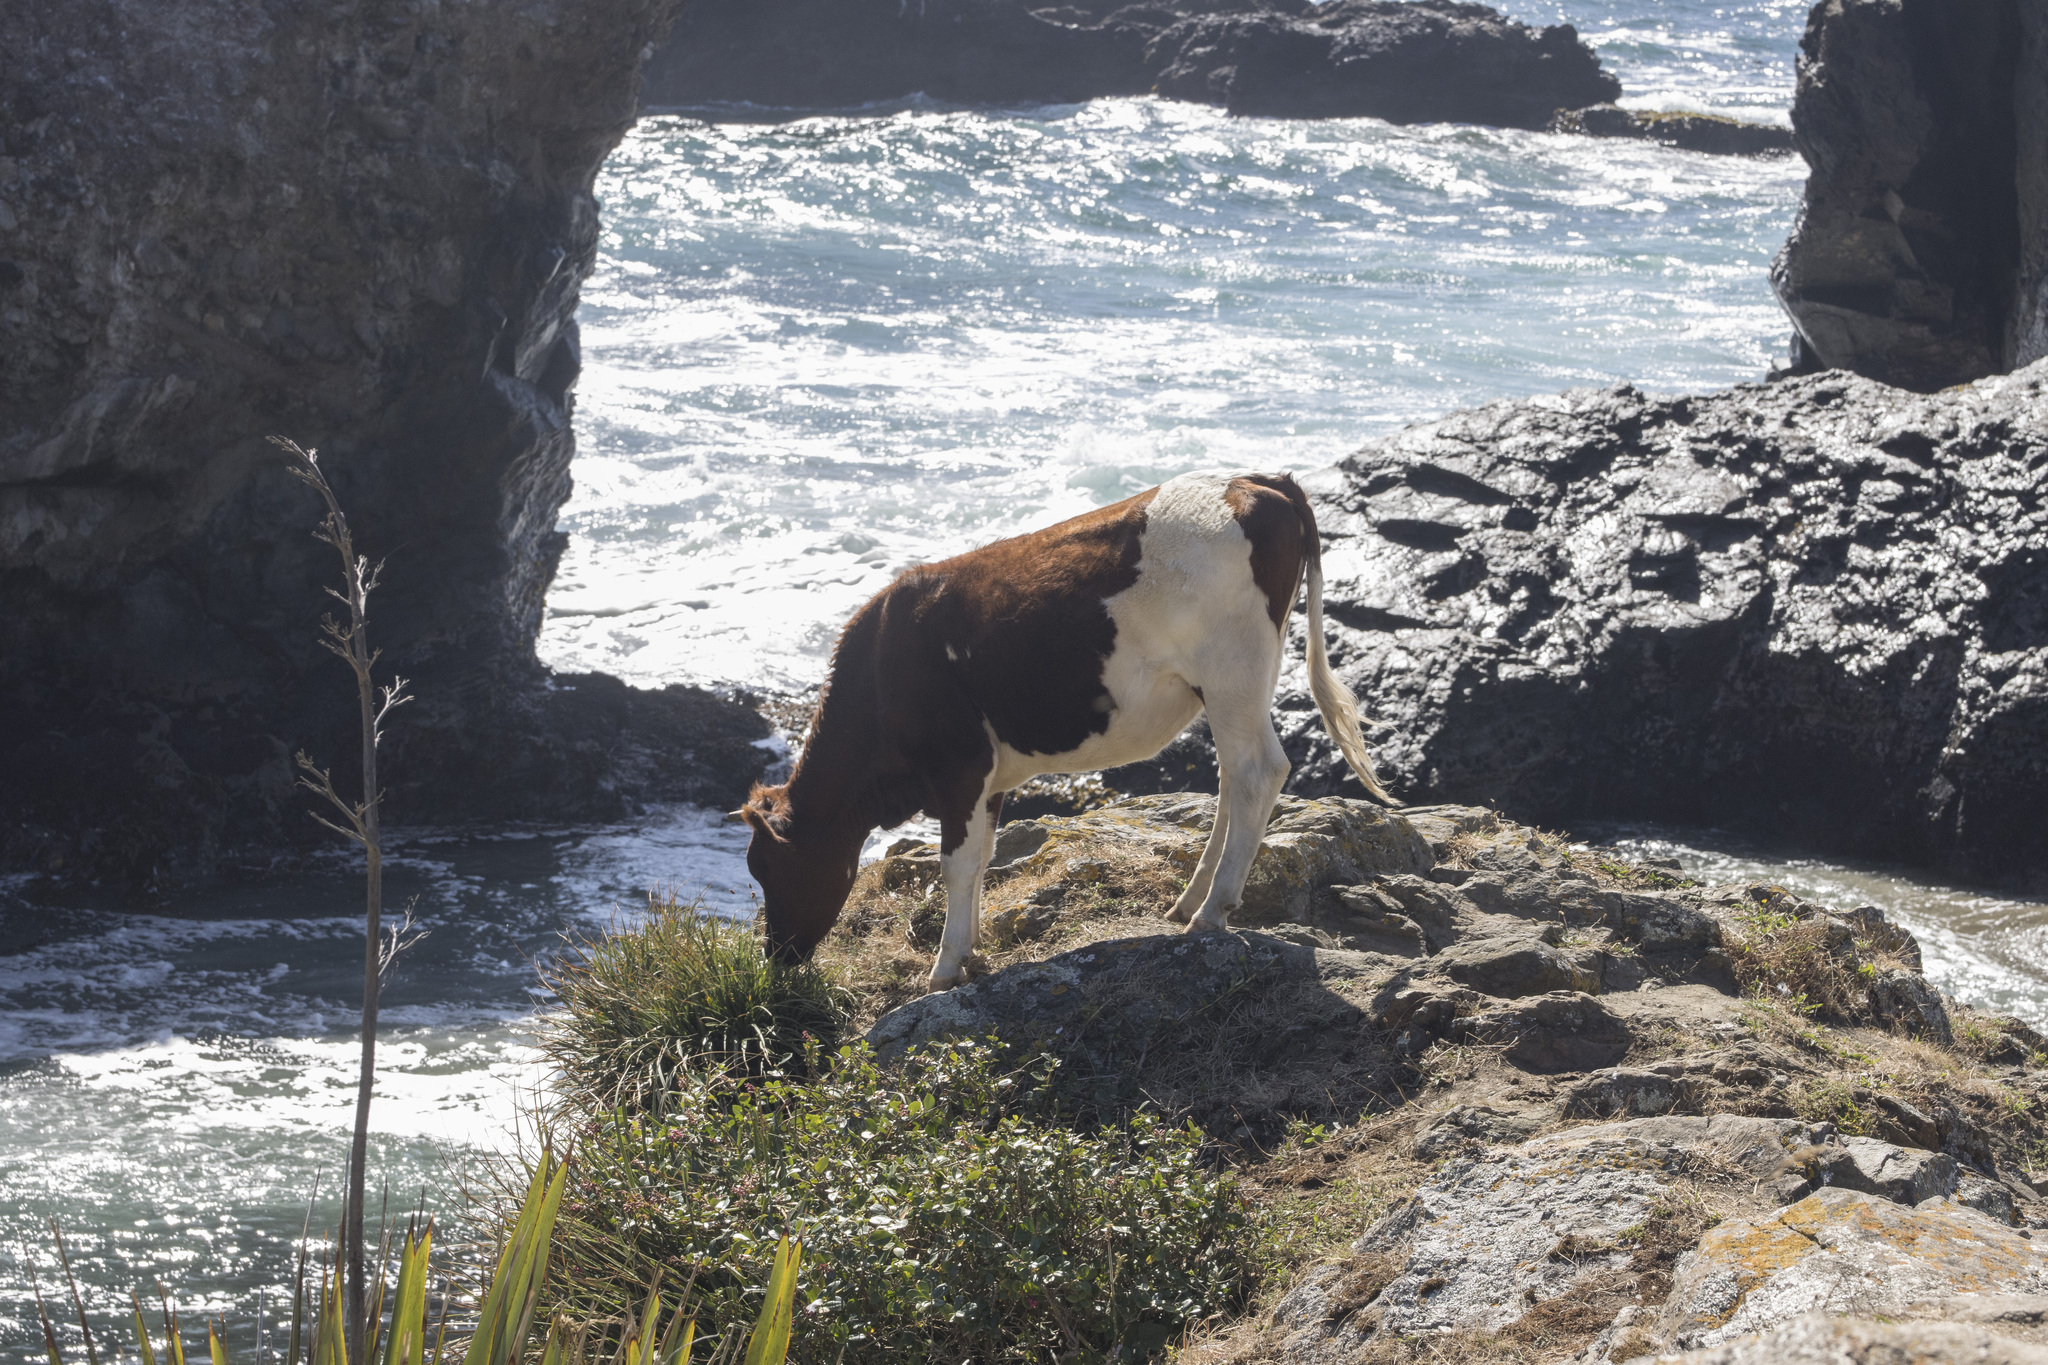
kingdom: Animalia
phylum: Chordata
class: Mammalia
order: Artiodactyla
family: Bovidae
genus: Bos
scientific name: Bos taurus
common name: Domesticated cattle
